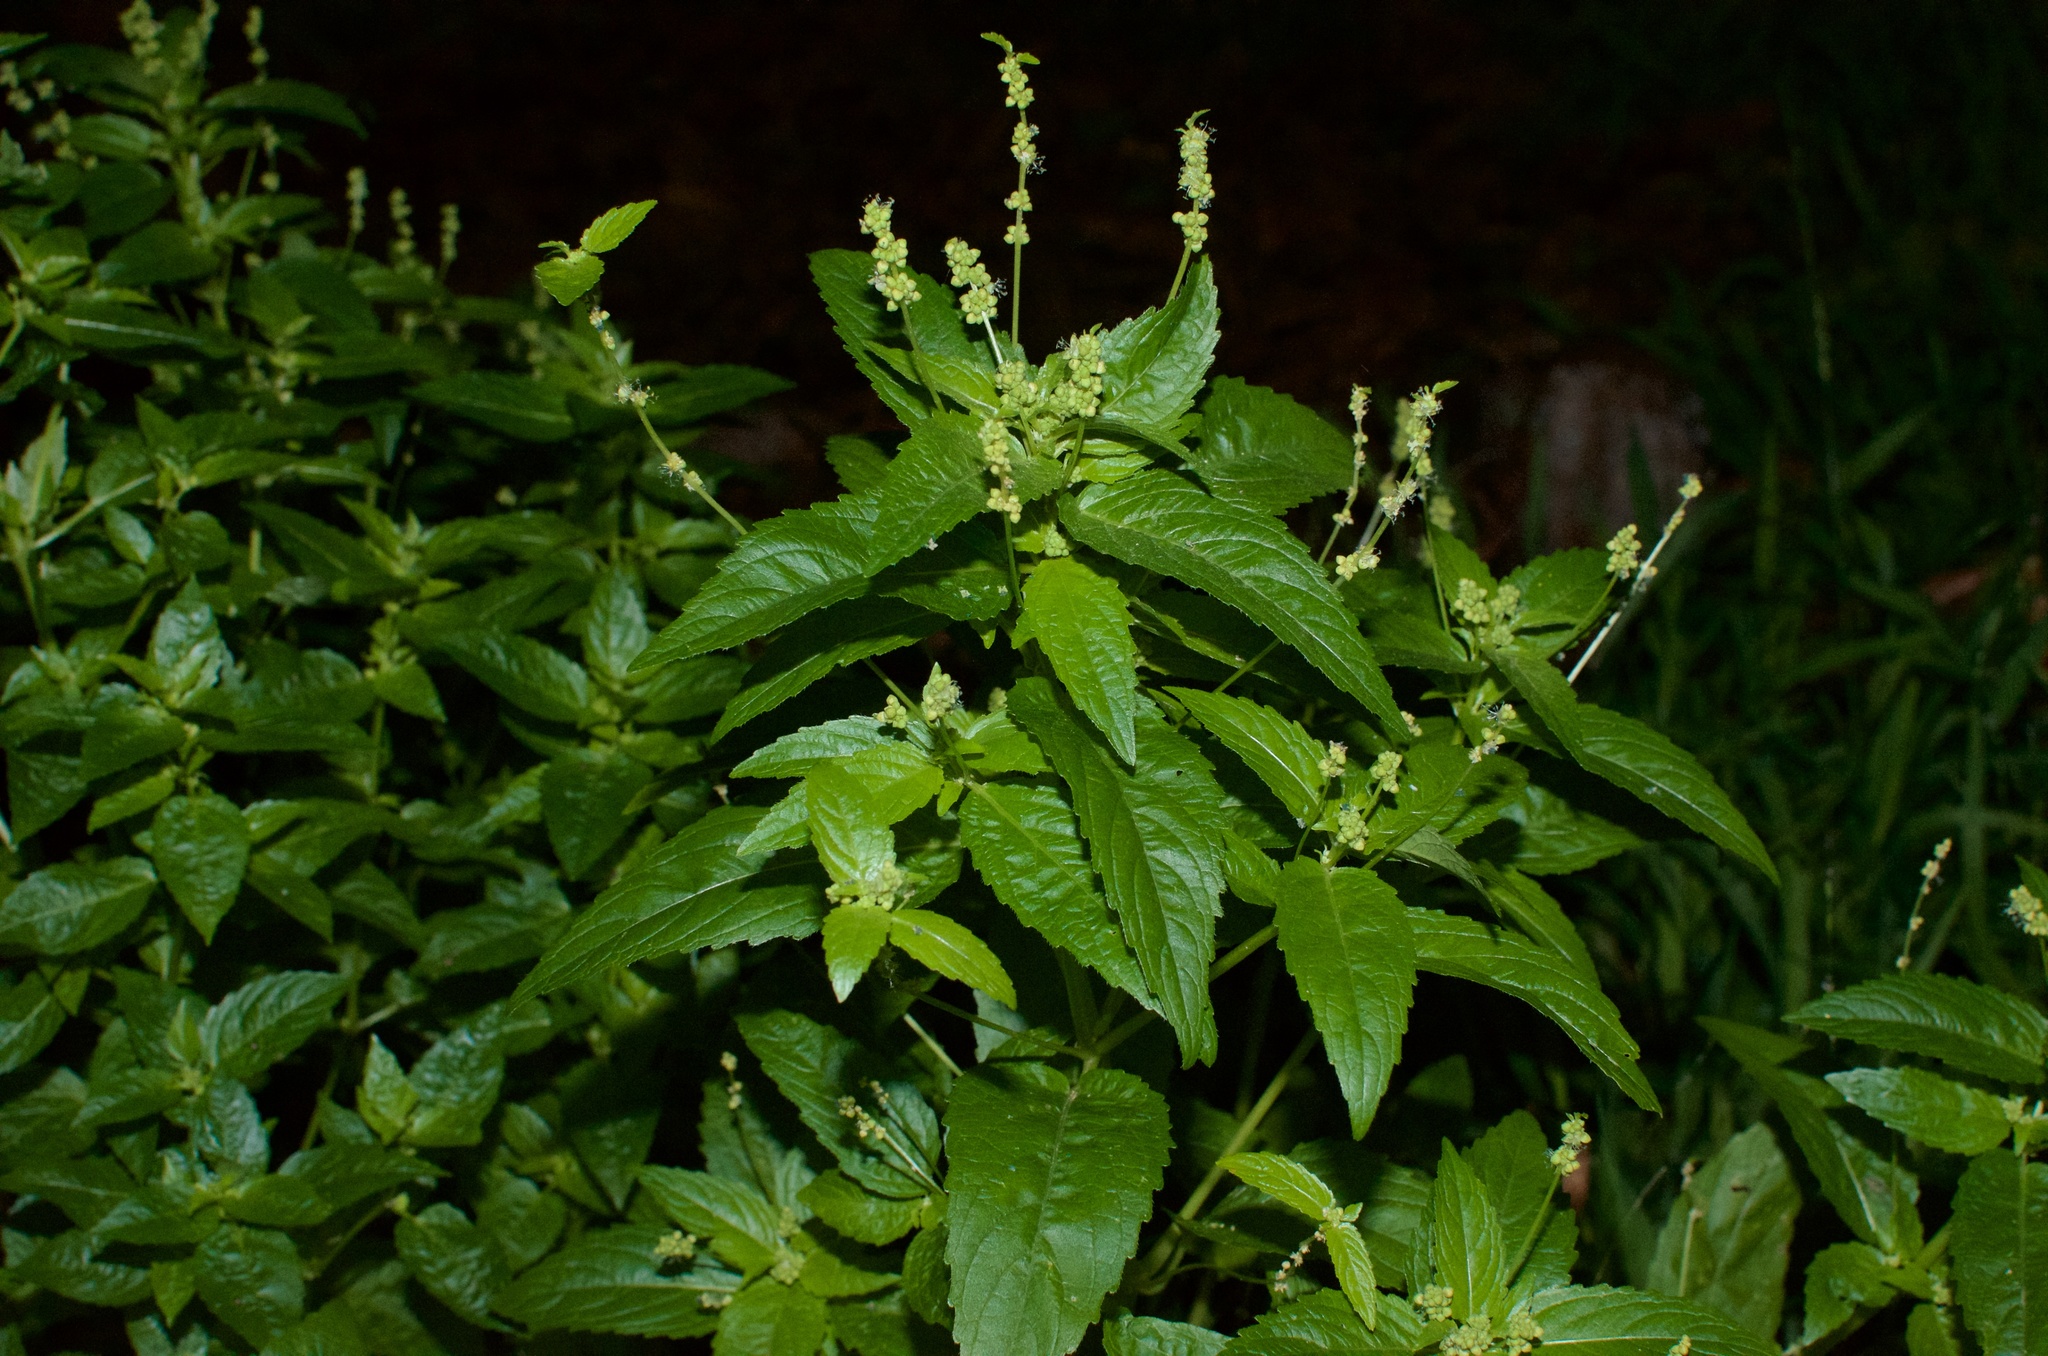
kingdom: Plantae
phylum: Tracheophyta
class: Magnoliopsida
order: Malpighiales
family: Euphorbiaceae
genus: Mercurialis
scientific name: Mercurialis annua
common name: Annual mercury
